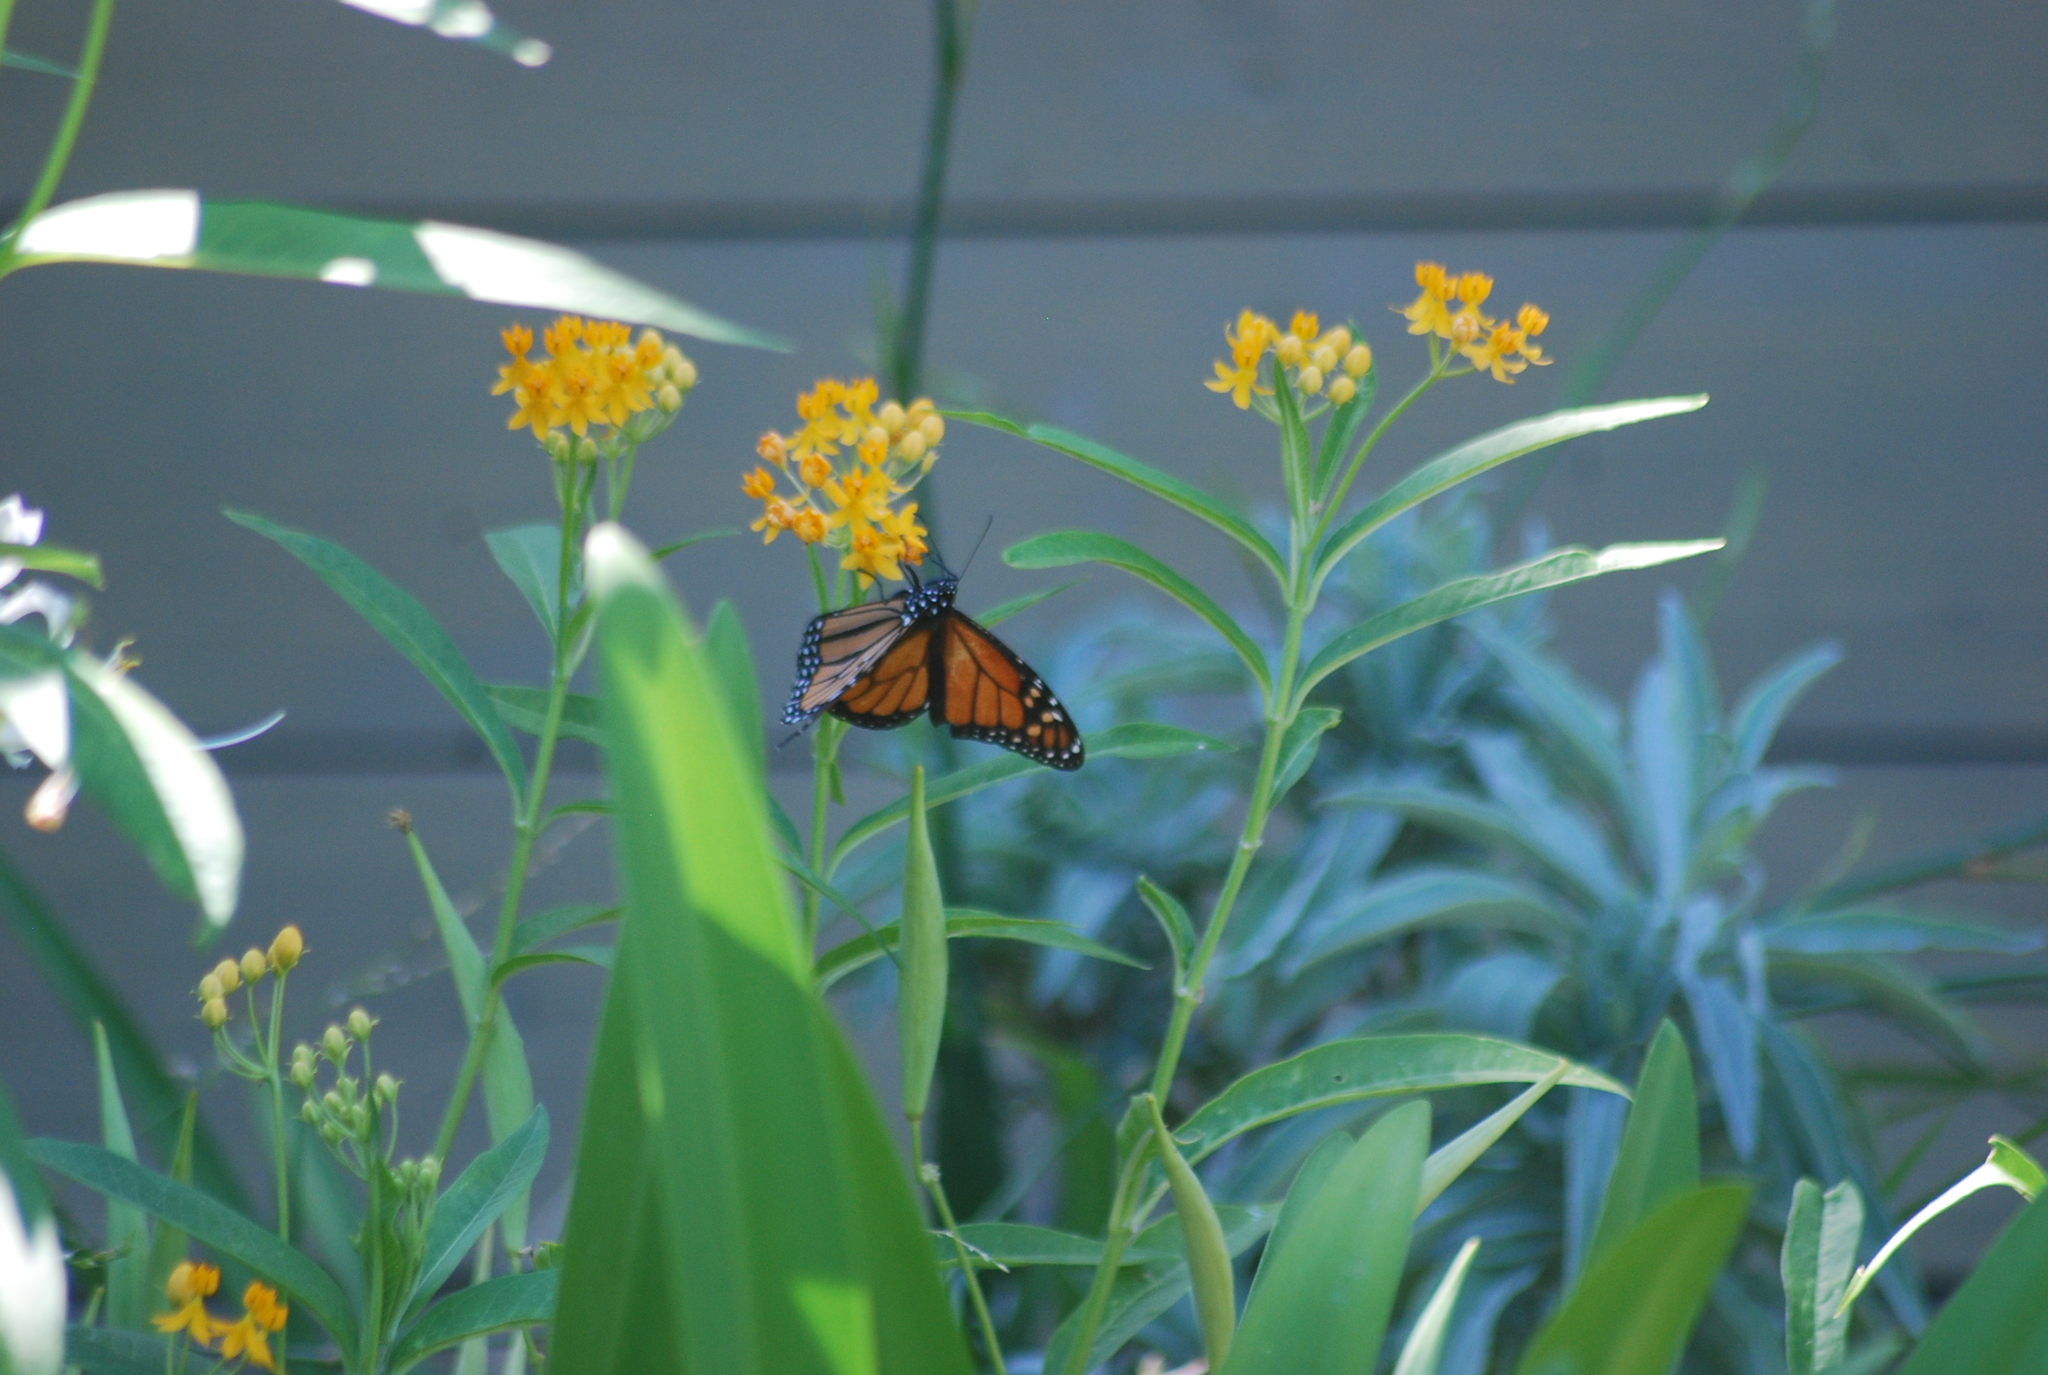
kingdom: Animalia
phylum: Arthropoda
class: Insecta
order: Lepidoptera
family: Nymphalidae
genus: Danaus
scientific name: Danaus plexippus
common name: Monarch
